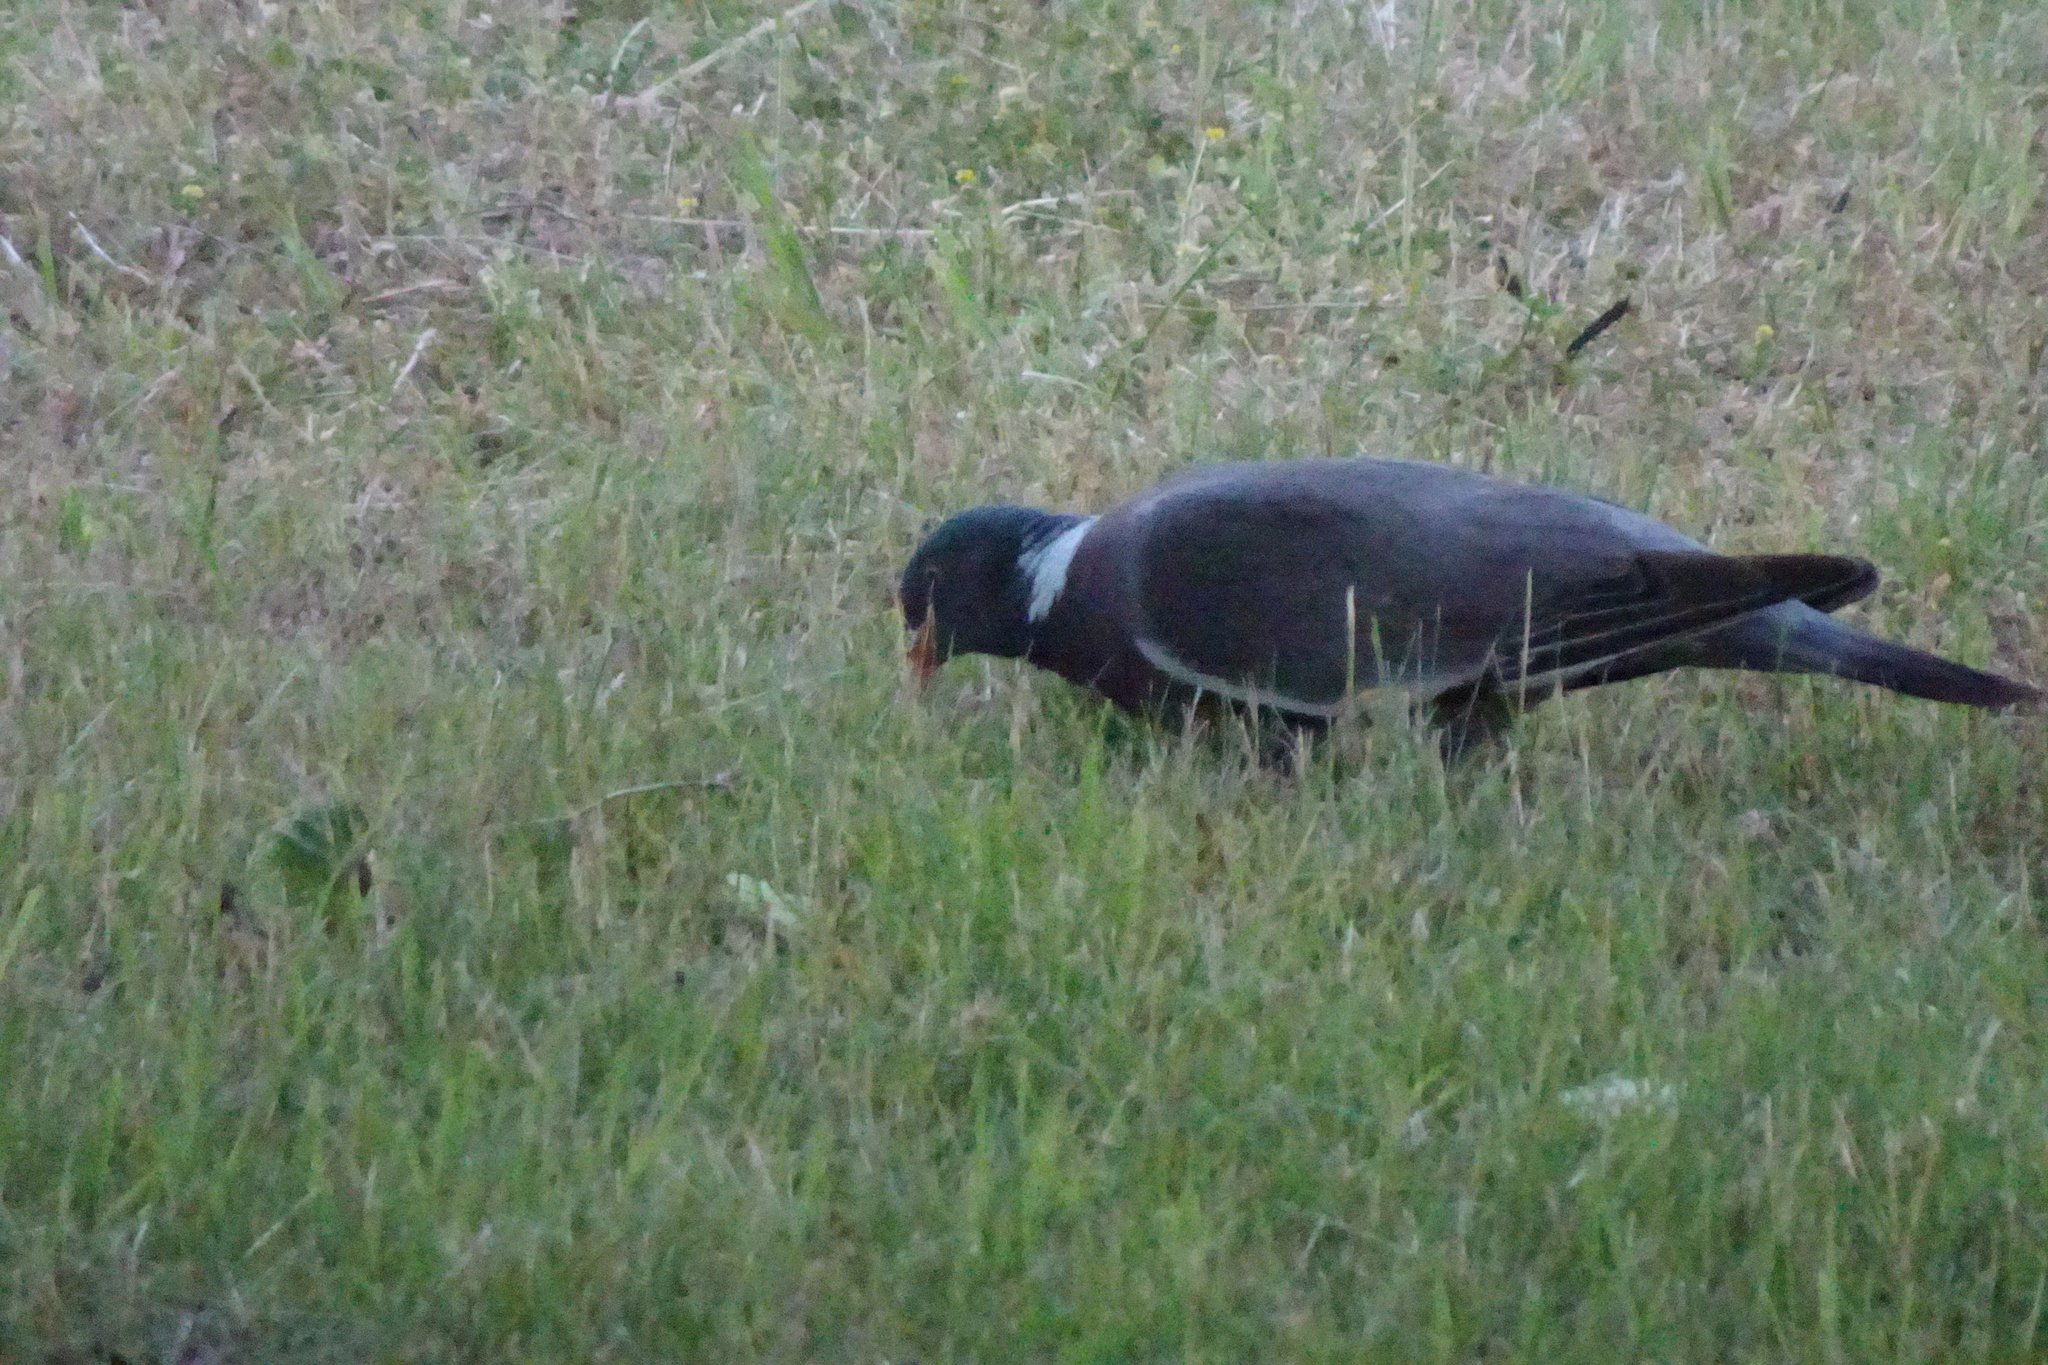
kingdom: Animalia
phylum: Chordata
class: Aves
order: Columbiformes
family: Columbidae
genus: Columba
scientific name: Columba palumbus
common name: Common wood pigeon
